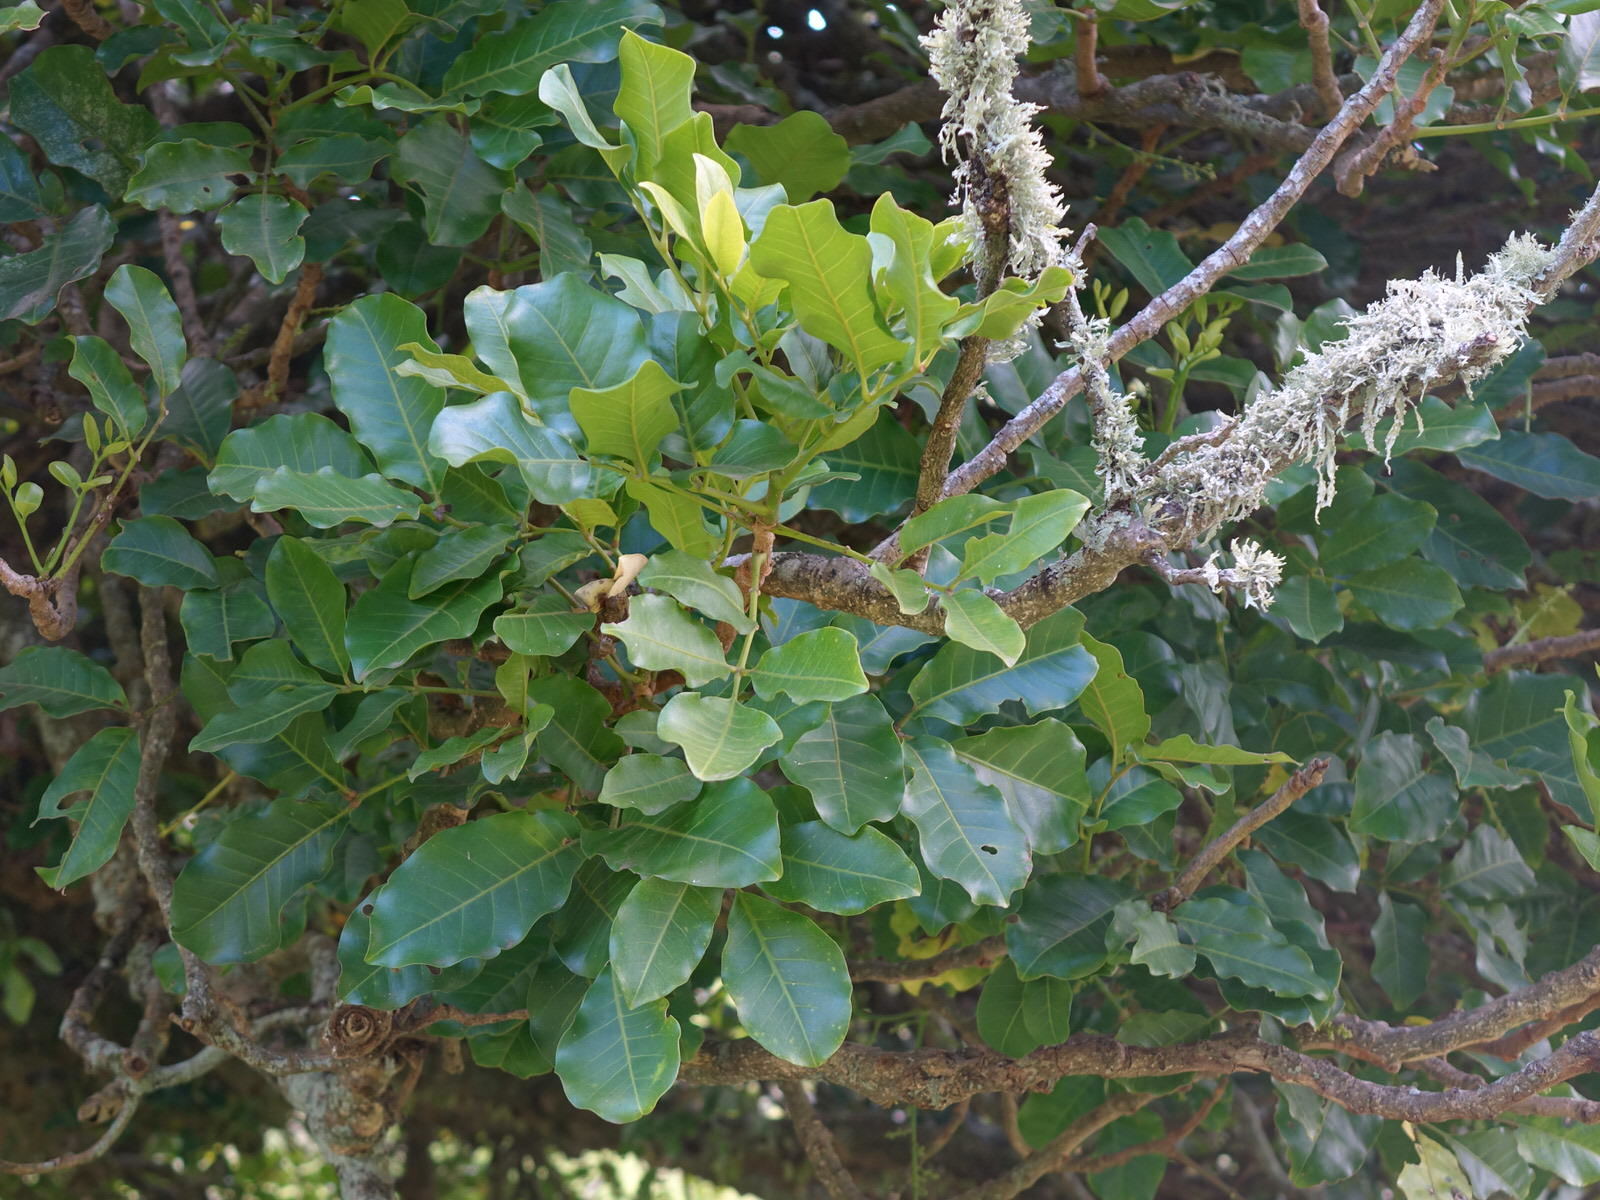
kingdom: Plantae
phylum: Tracheophyta
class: Magnoliopsida
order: Sapindales
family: Meliaceae
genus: Didymocheton
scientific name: Didymocheton spectabilis
